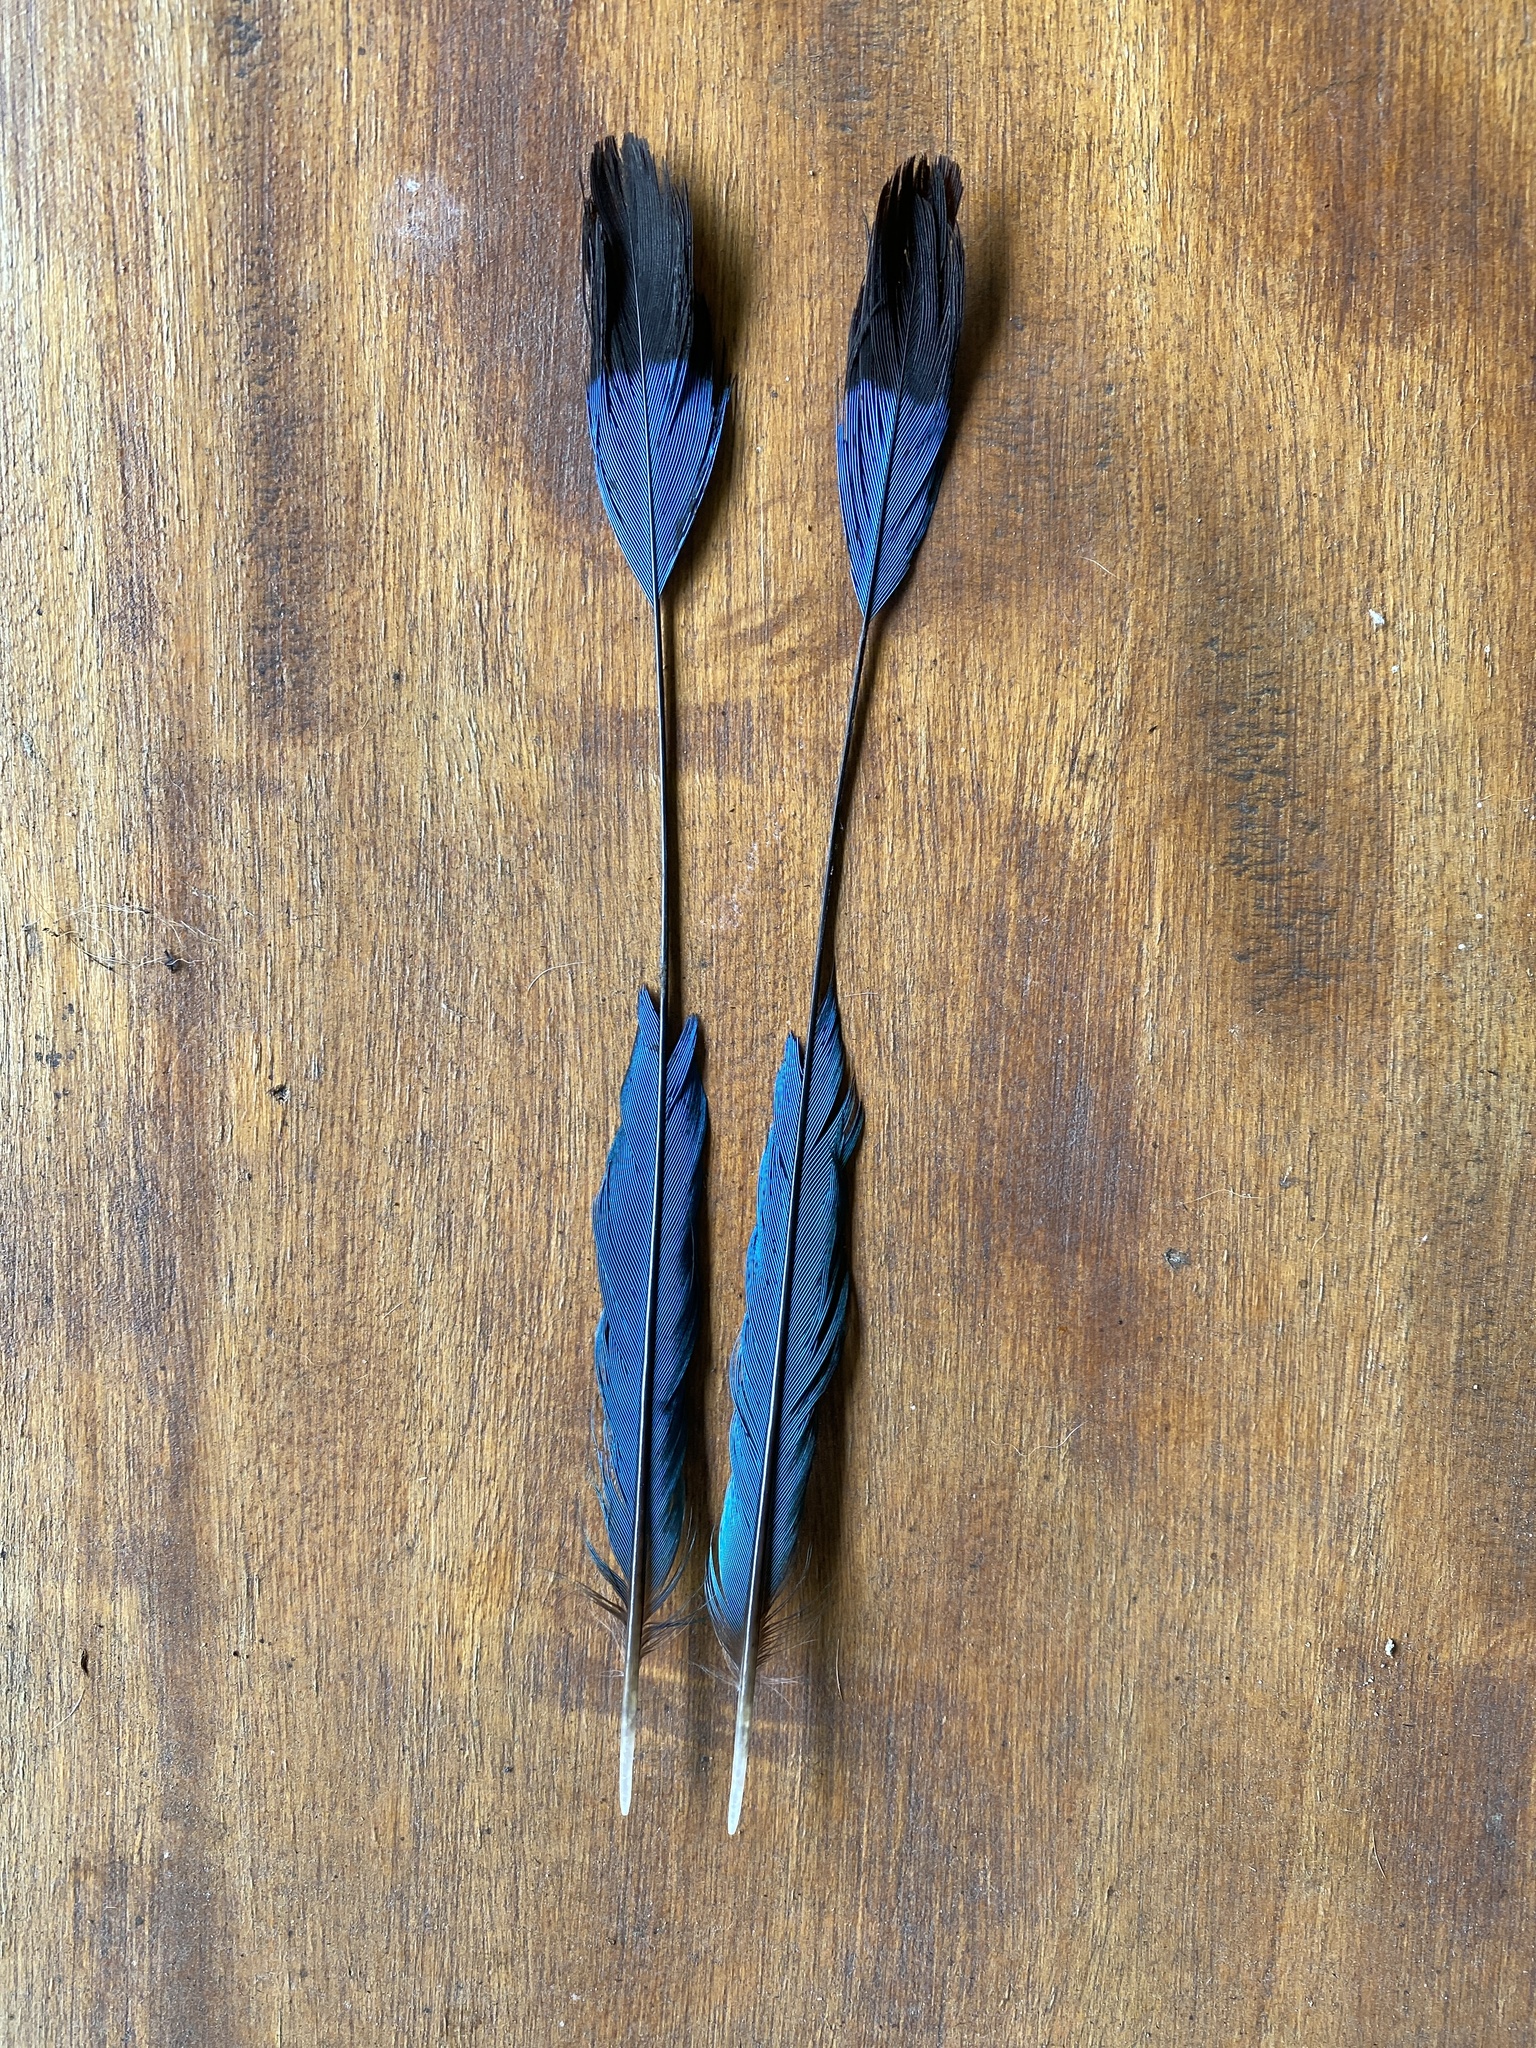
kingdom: Animalia
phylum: Chordata
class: Aves
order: Coraciiformes
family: Momotidae
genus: Eumomota
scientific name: Eumomota superciliosa
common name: Turquoise-browed motmot
